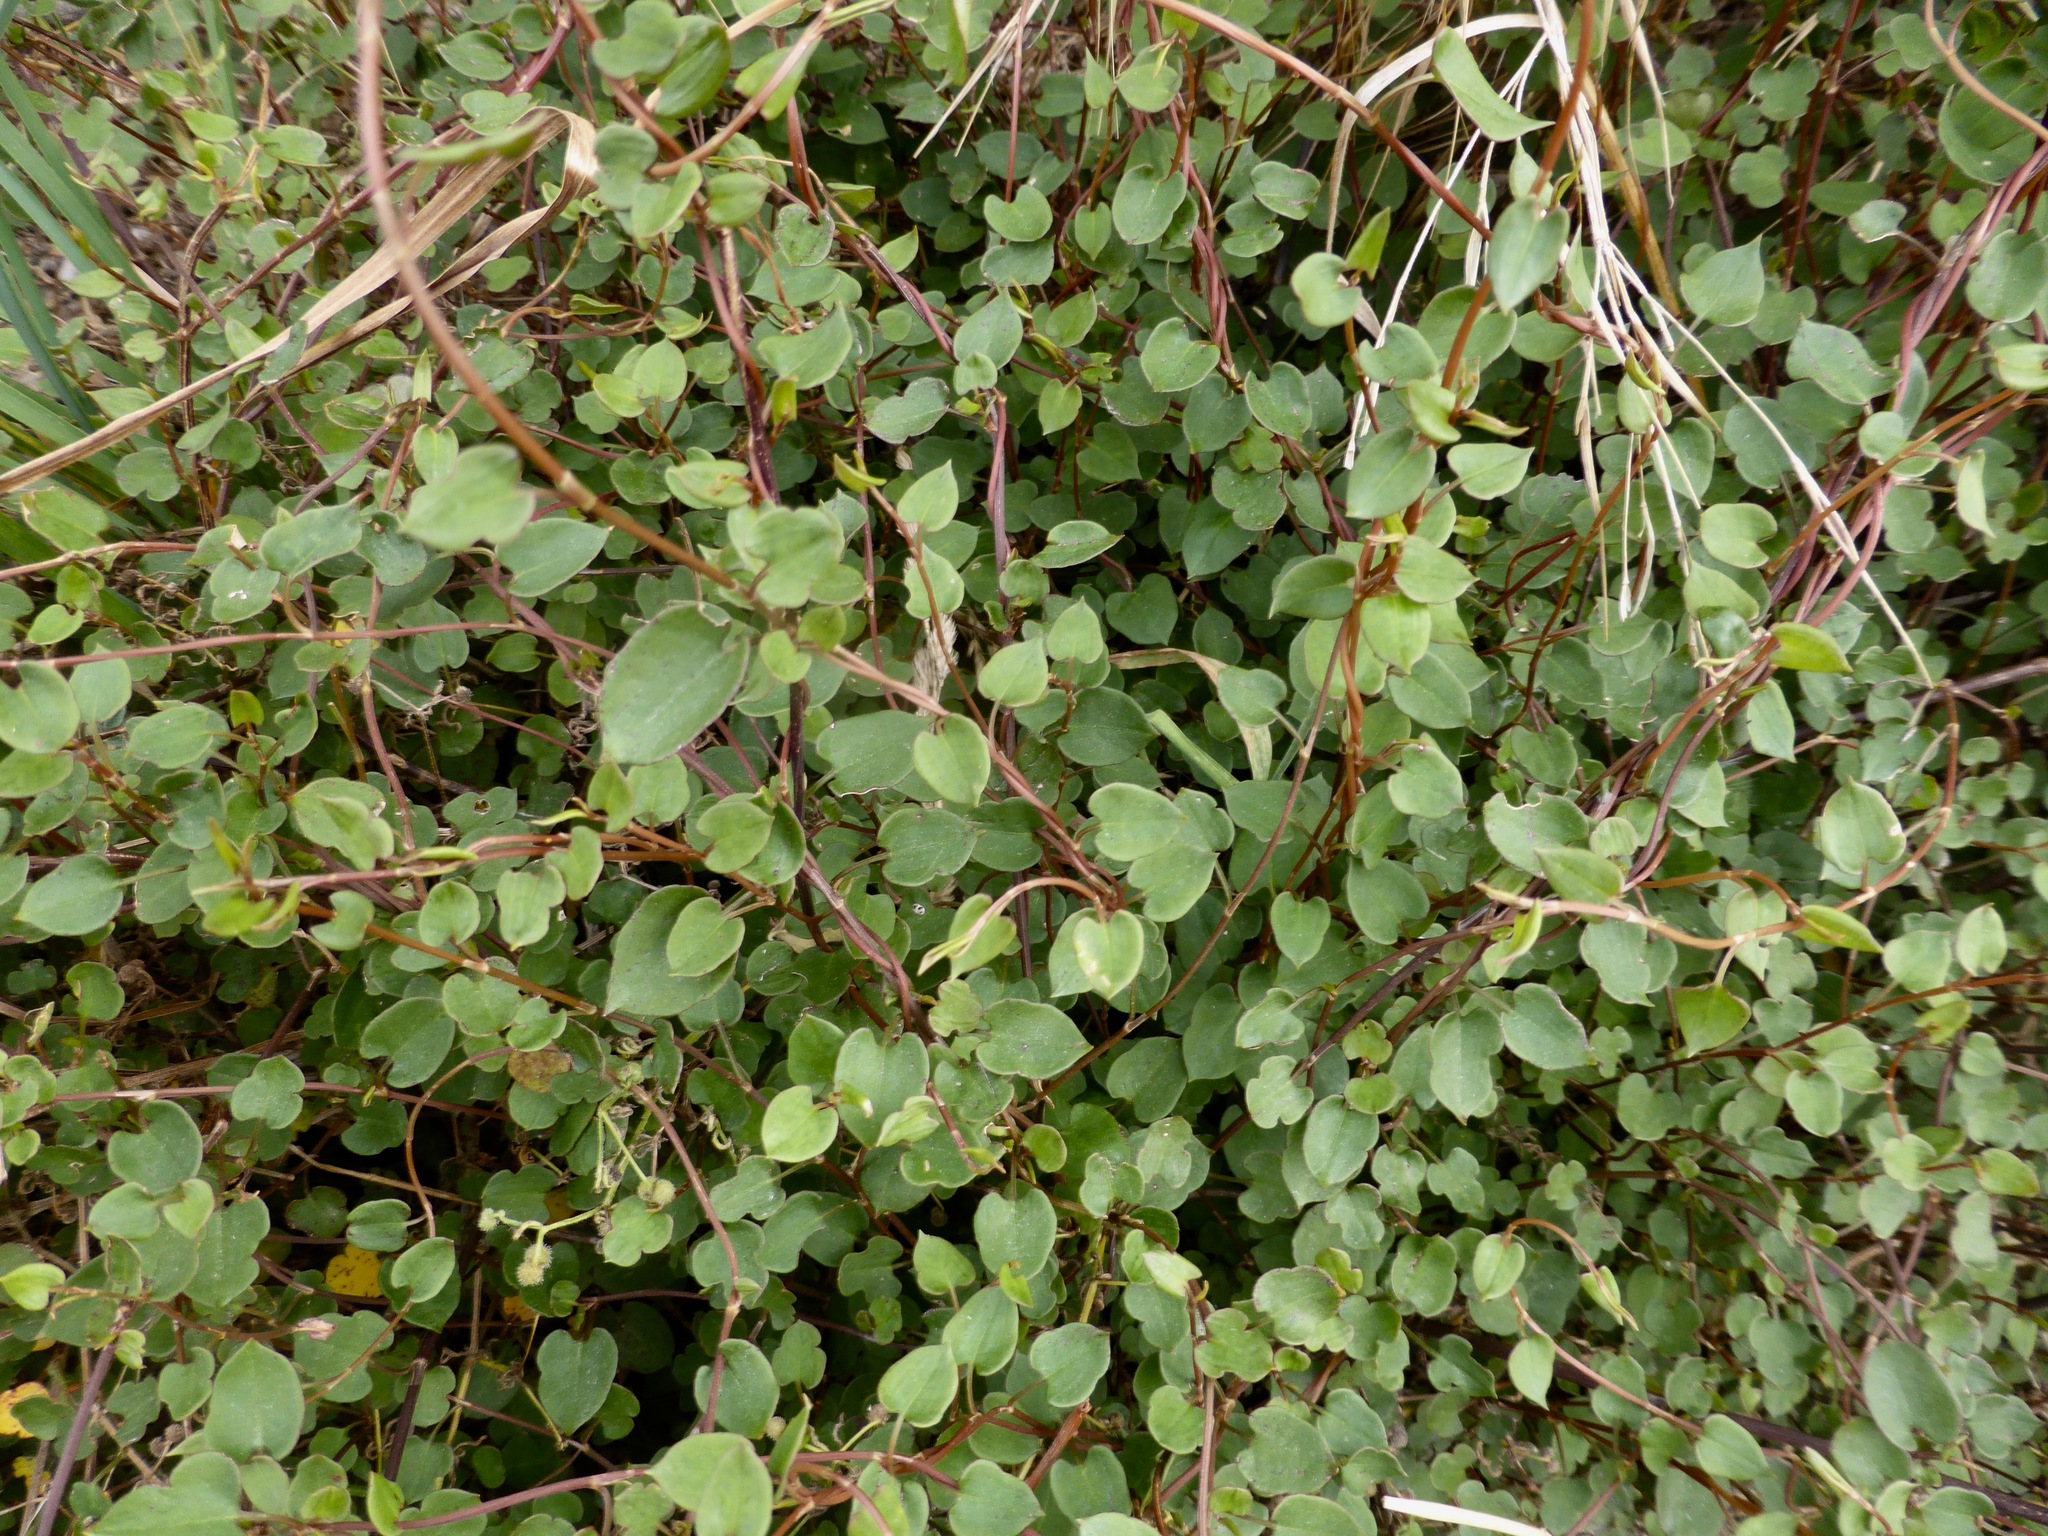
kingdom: Plantae
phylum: Tracheophyta
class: Magnoliopsida
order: Caryophyllales
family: Polygonaceae
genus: Muehlenbeckia
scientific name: Muehlenbeckia complexa
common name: Wireplant
